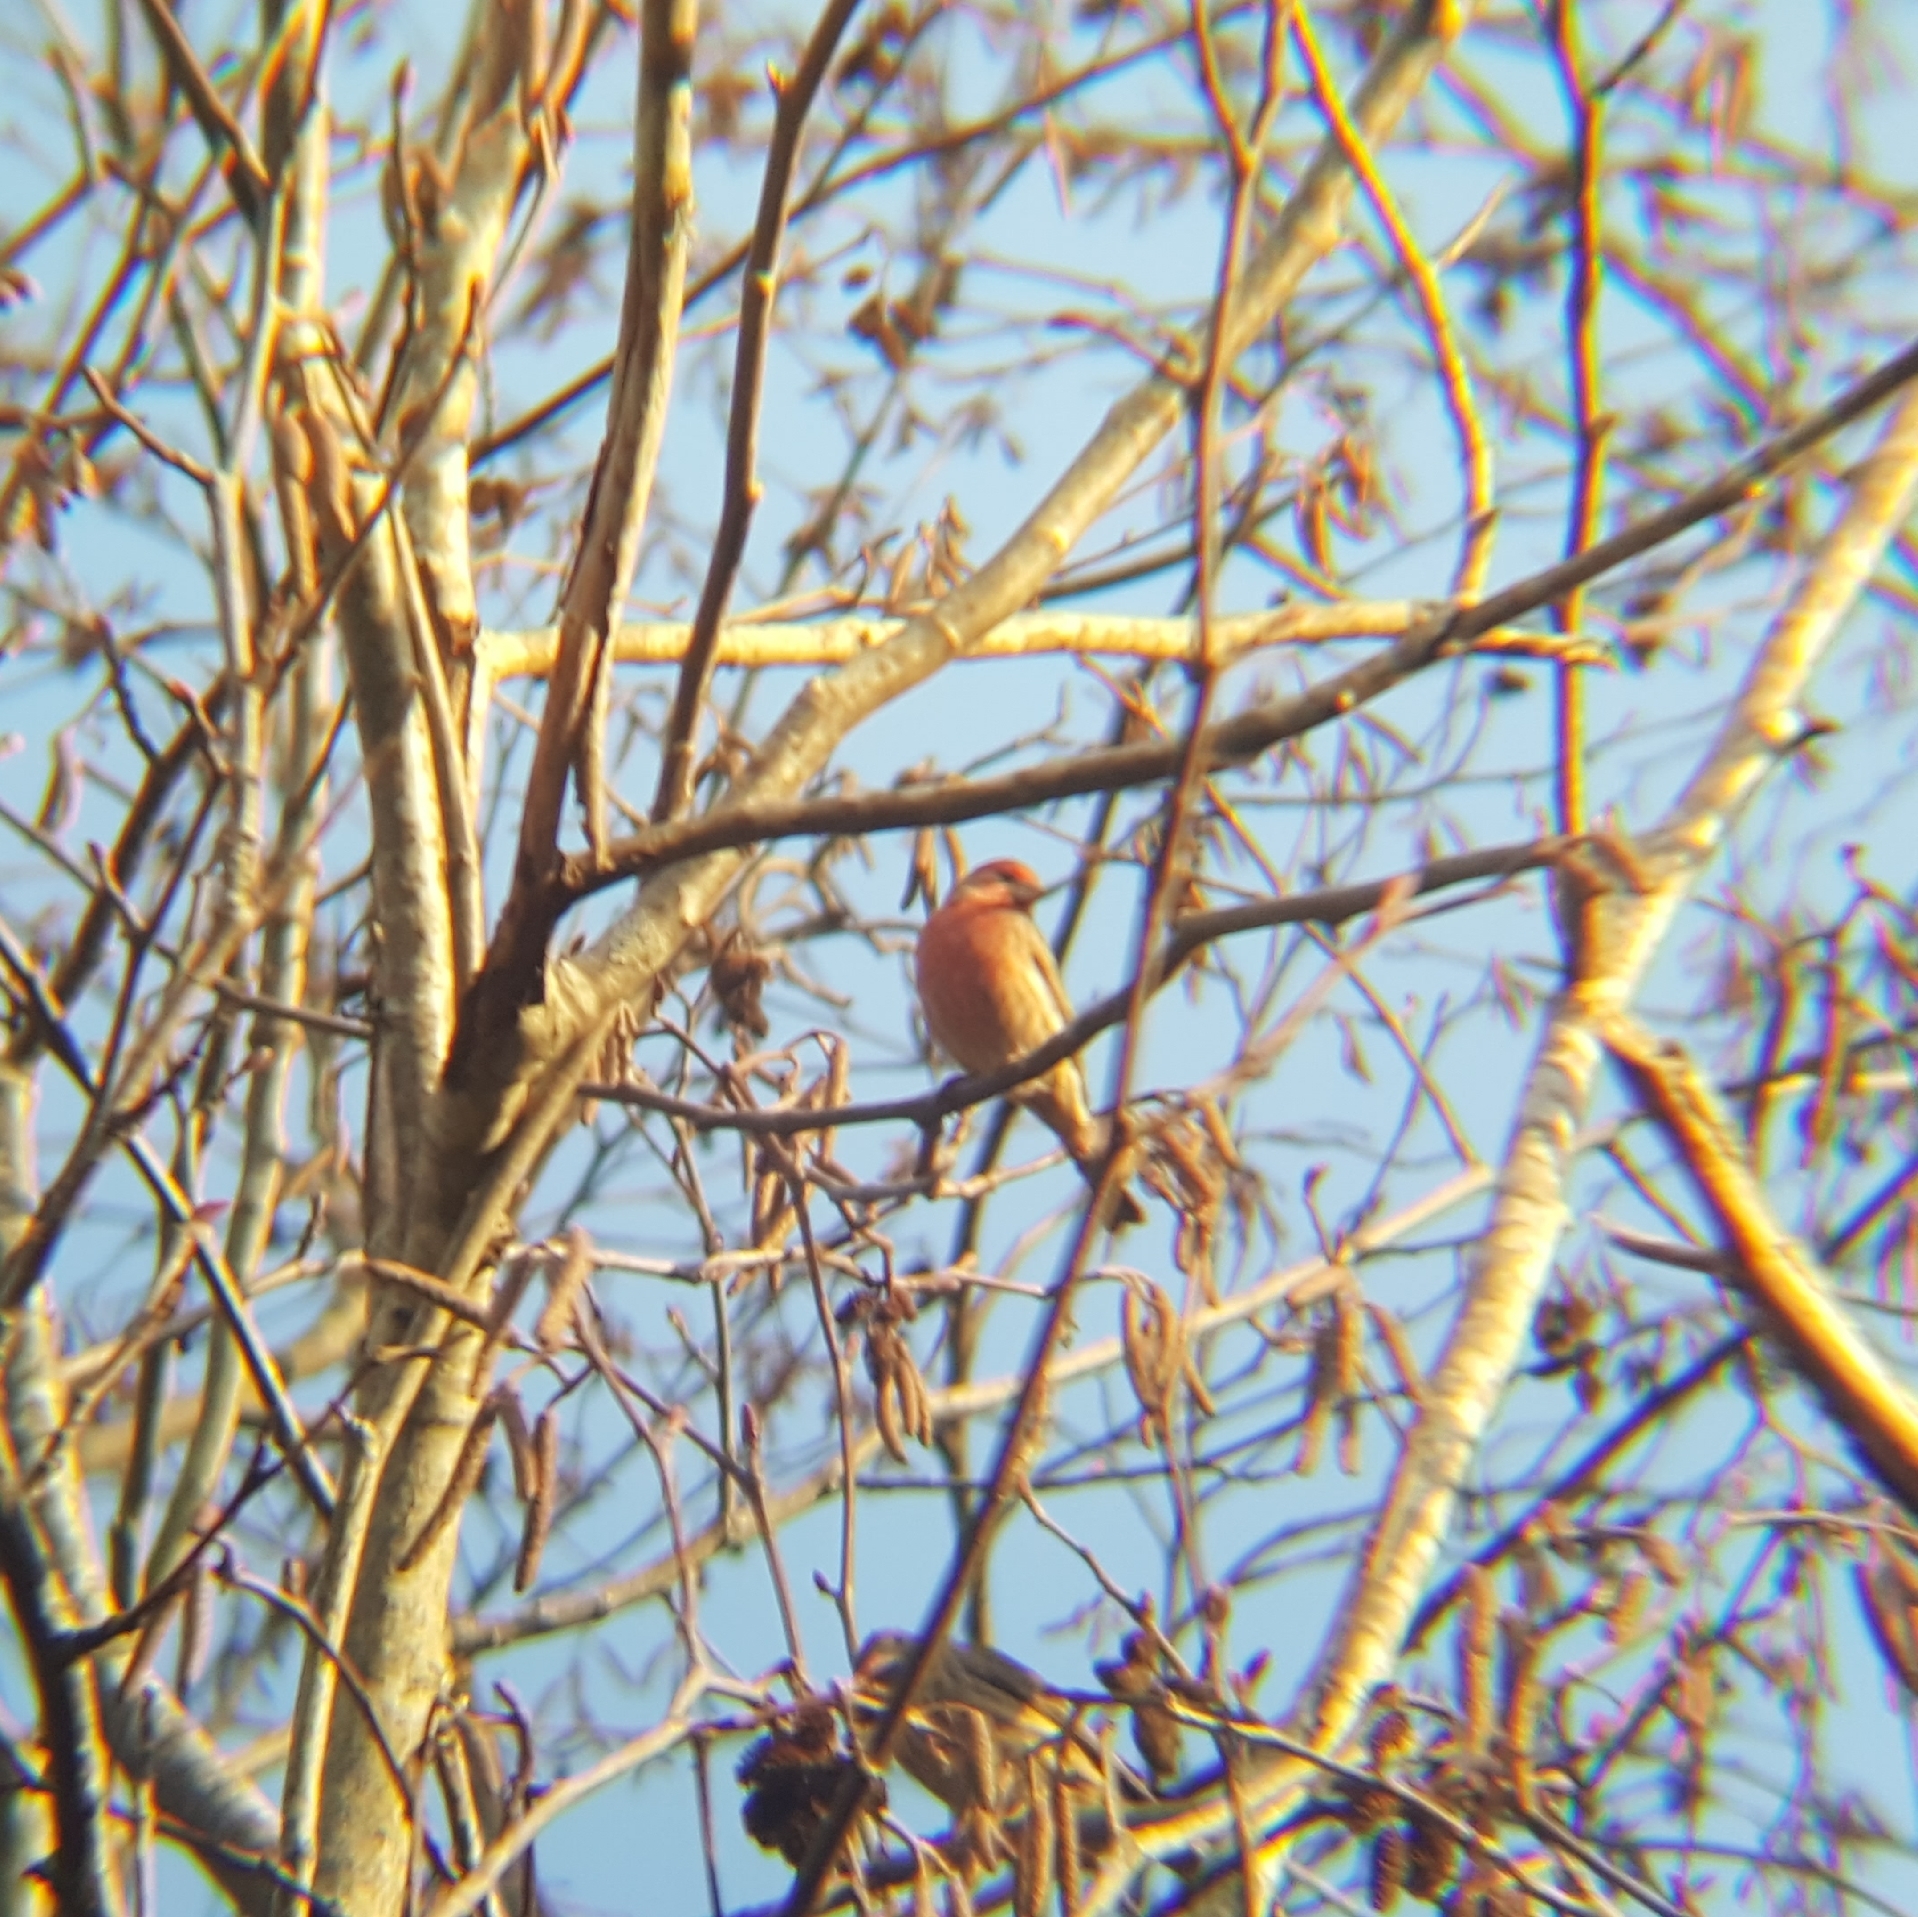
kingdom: Animalia
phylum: Chordata
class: Aves
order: Passeriformes
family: Fringillidae
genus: Haemorhous
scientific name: Haemorhous mexicanus
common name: House finch
